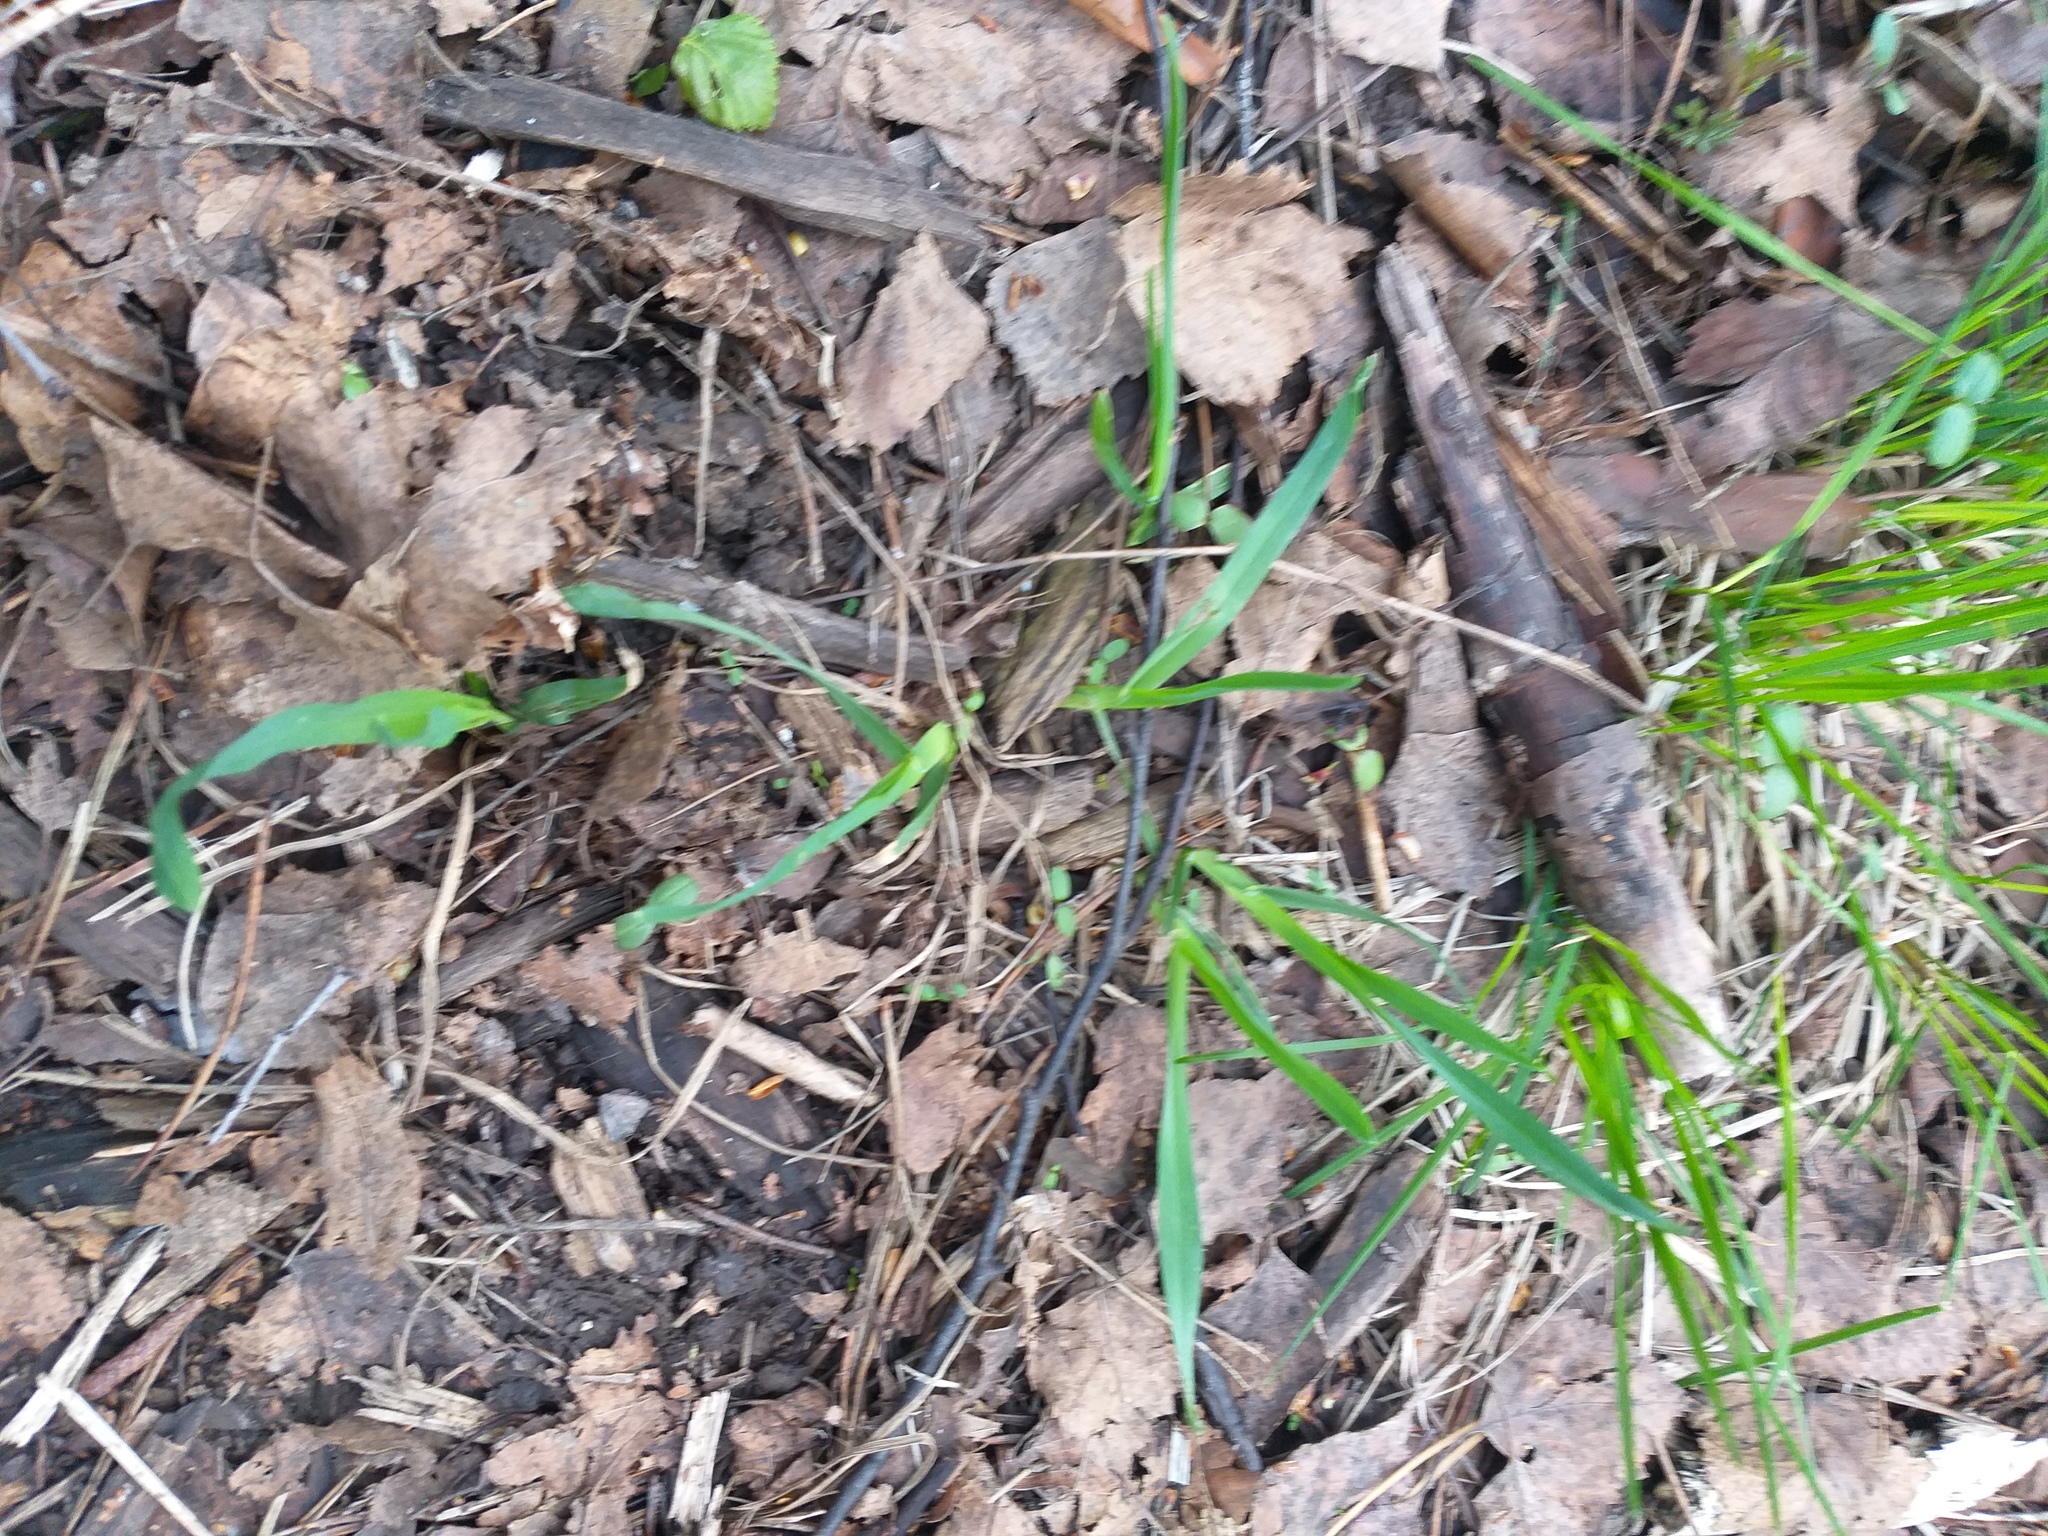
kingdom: Plantae
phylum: Tracheophyta
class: Liliopsida
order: Poales
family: Poaceae
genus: Dactylis
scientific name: Dactylis glomerata
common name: Orchardgrass
